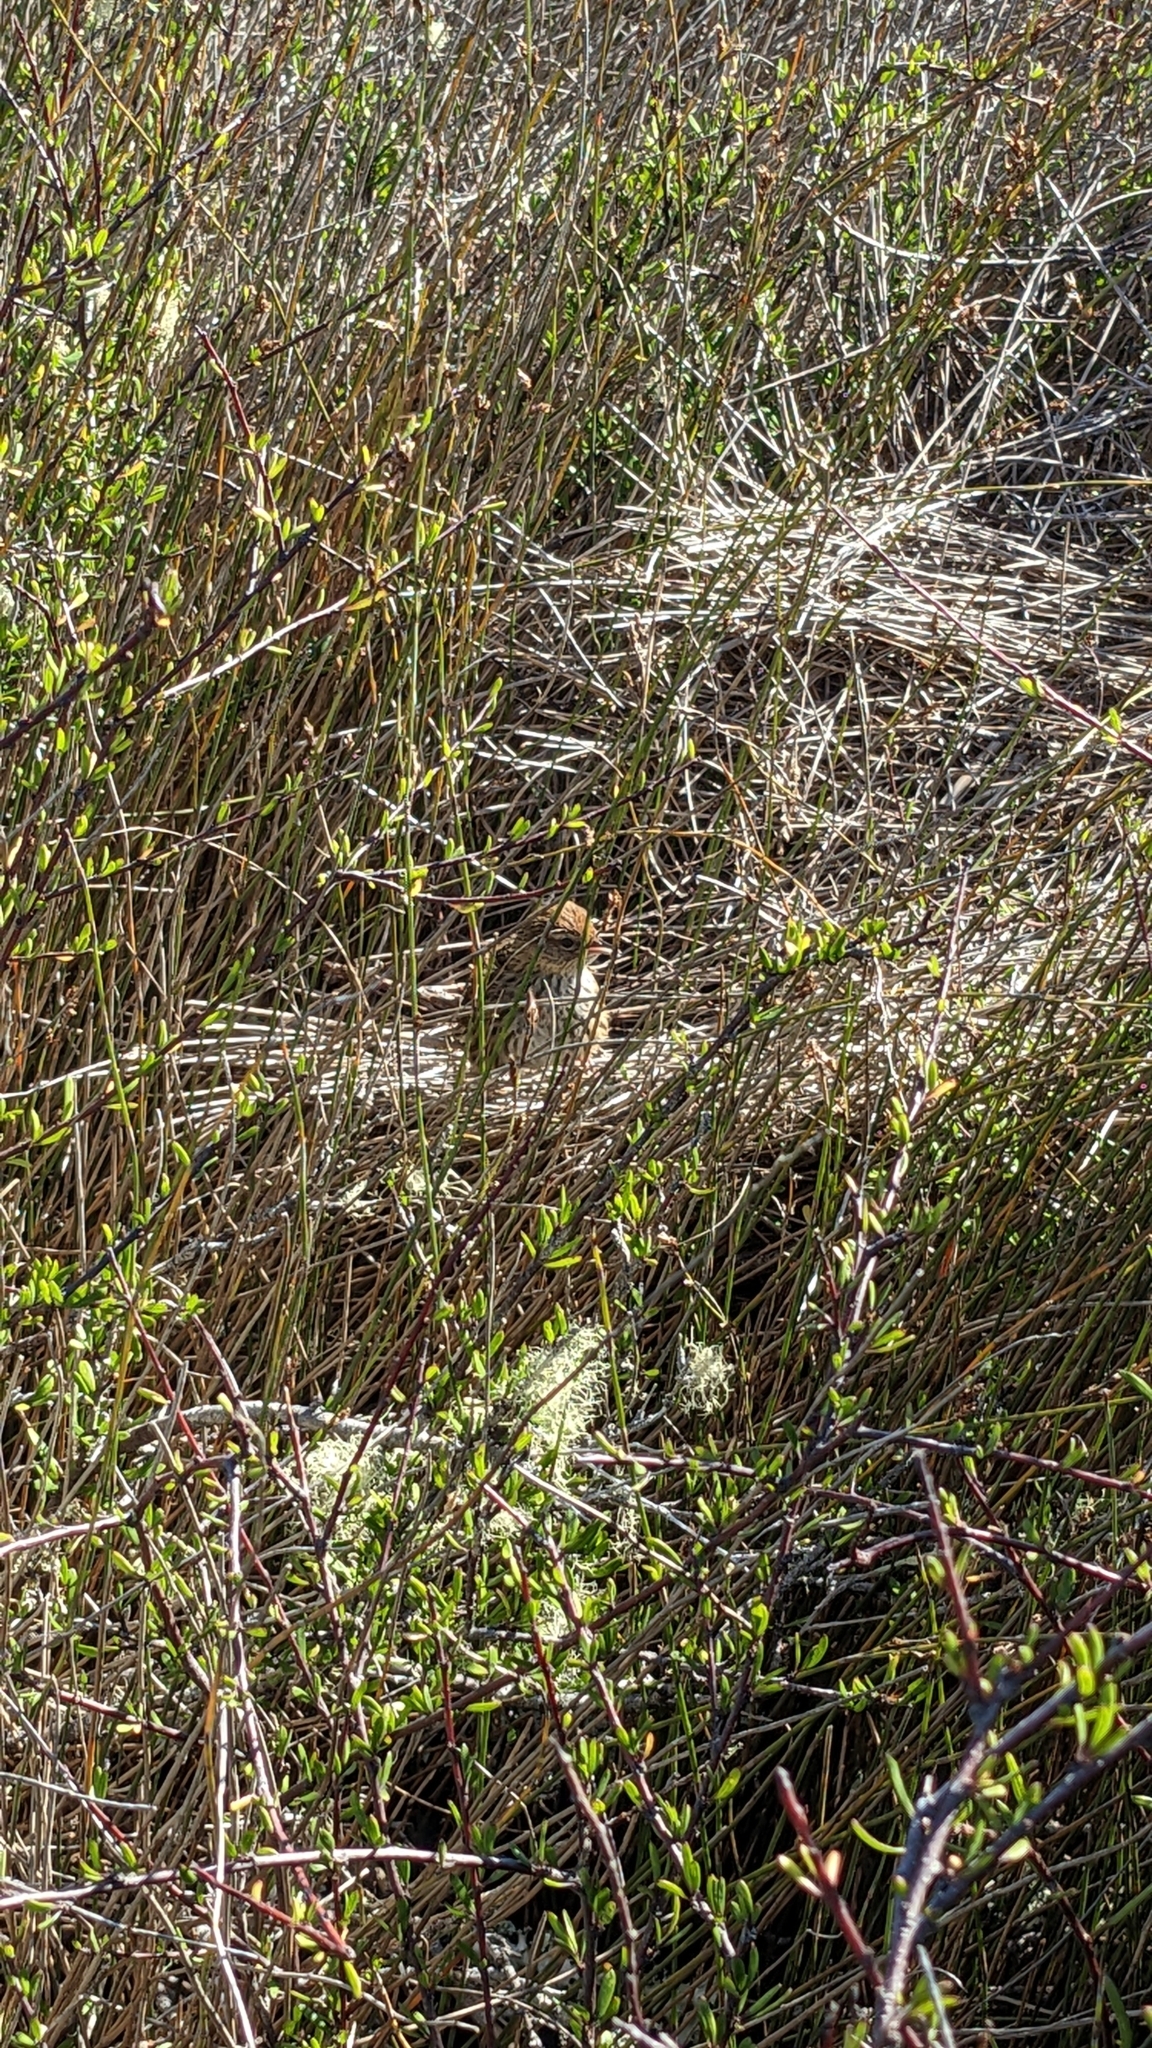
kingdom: Animalia
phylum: Chordata
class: Aves
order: Passeriformes
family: Locustellidae
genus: Poodytes
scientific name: Poodytes punctatus
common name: New zealand fernbird
